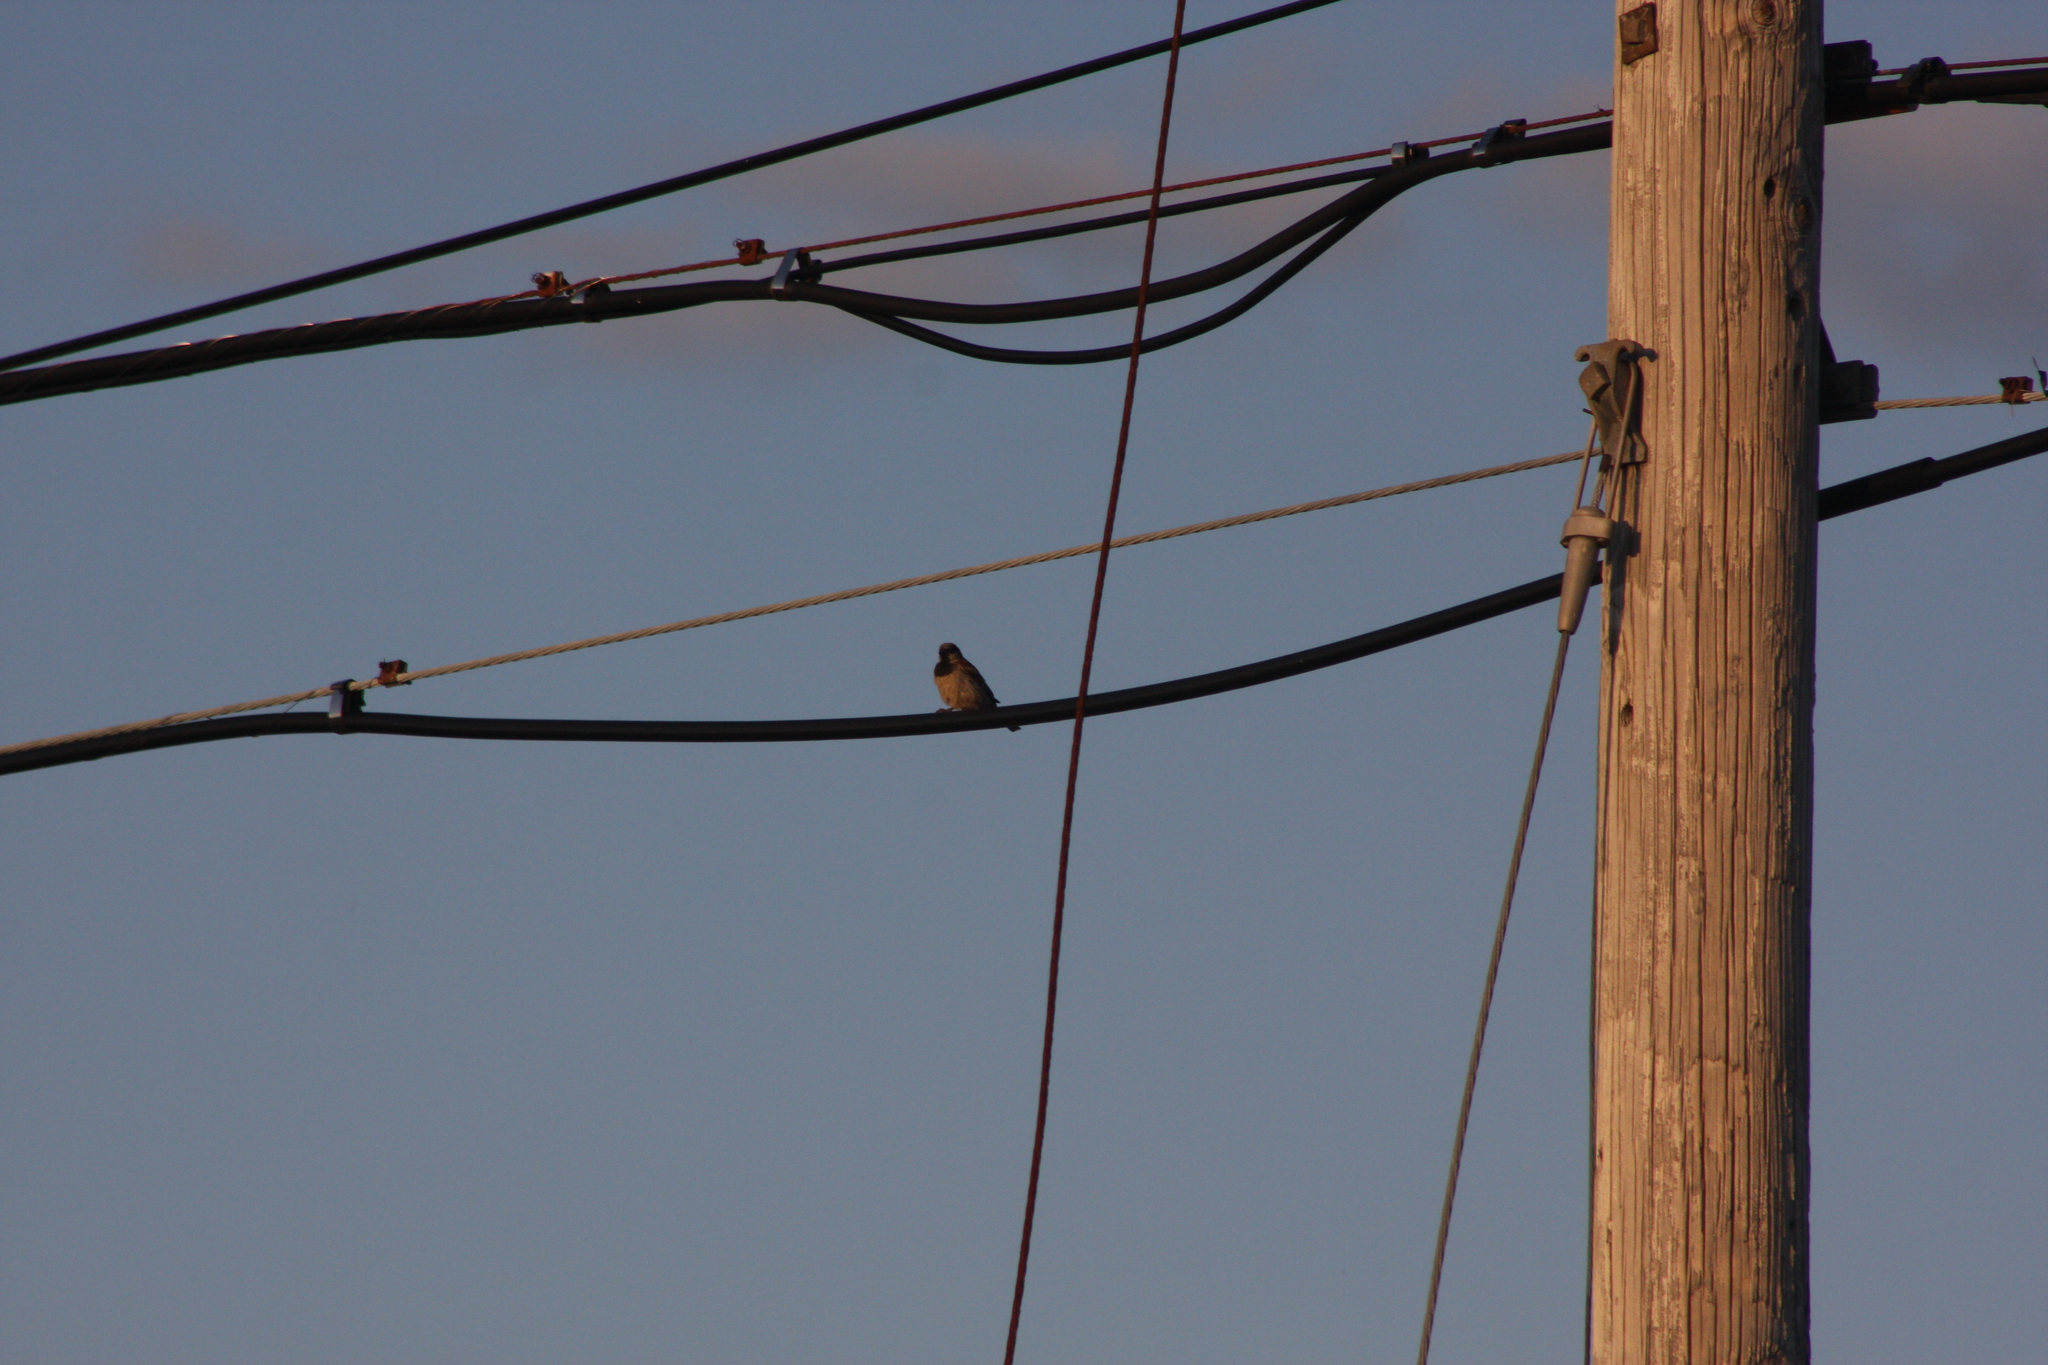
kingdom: Animalia
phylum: Chordata
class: Aves
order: Passeriformes
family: Passeridae
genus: Passer
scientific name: Passer domesticus
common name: House sparrow
